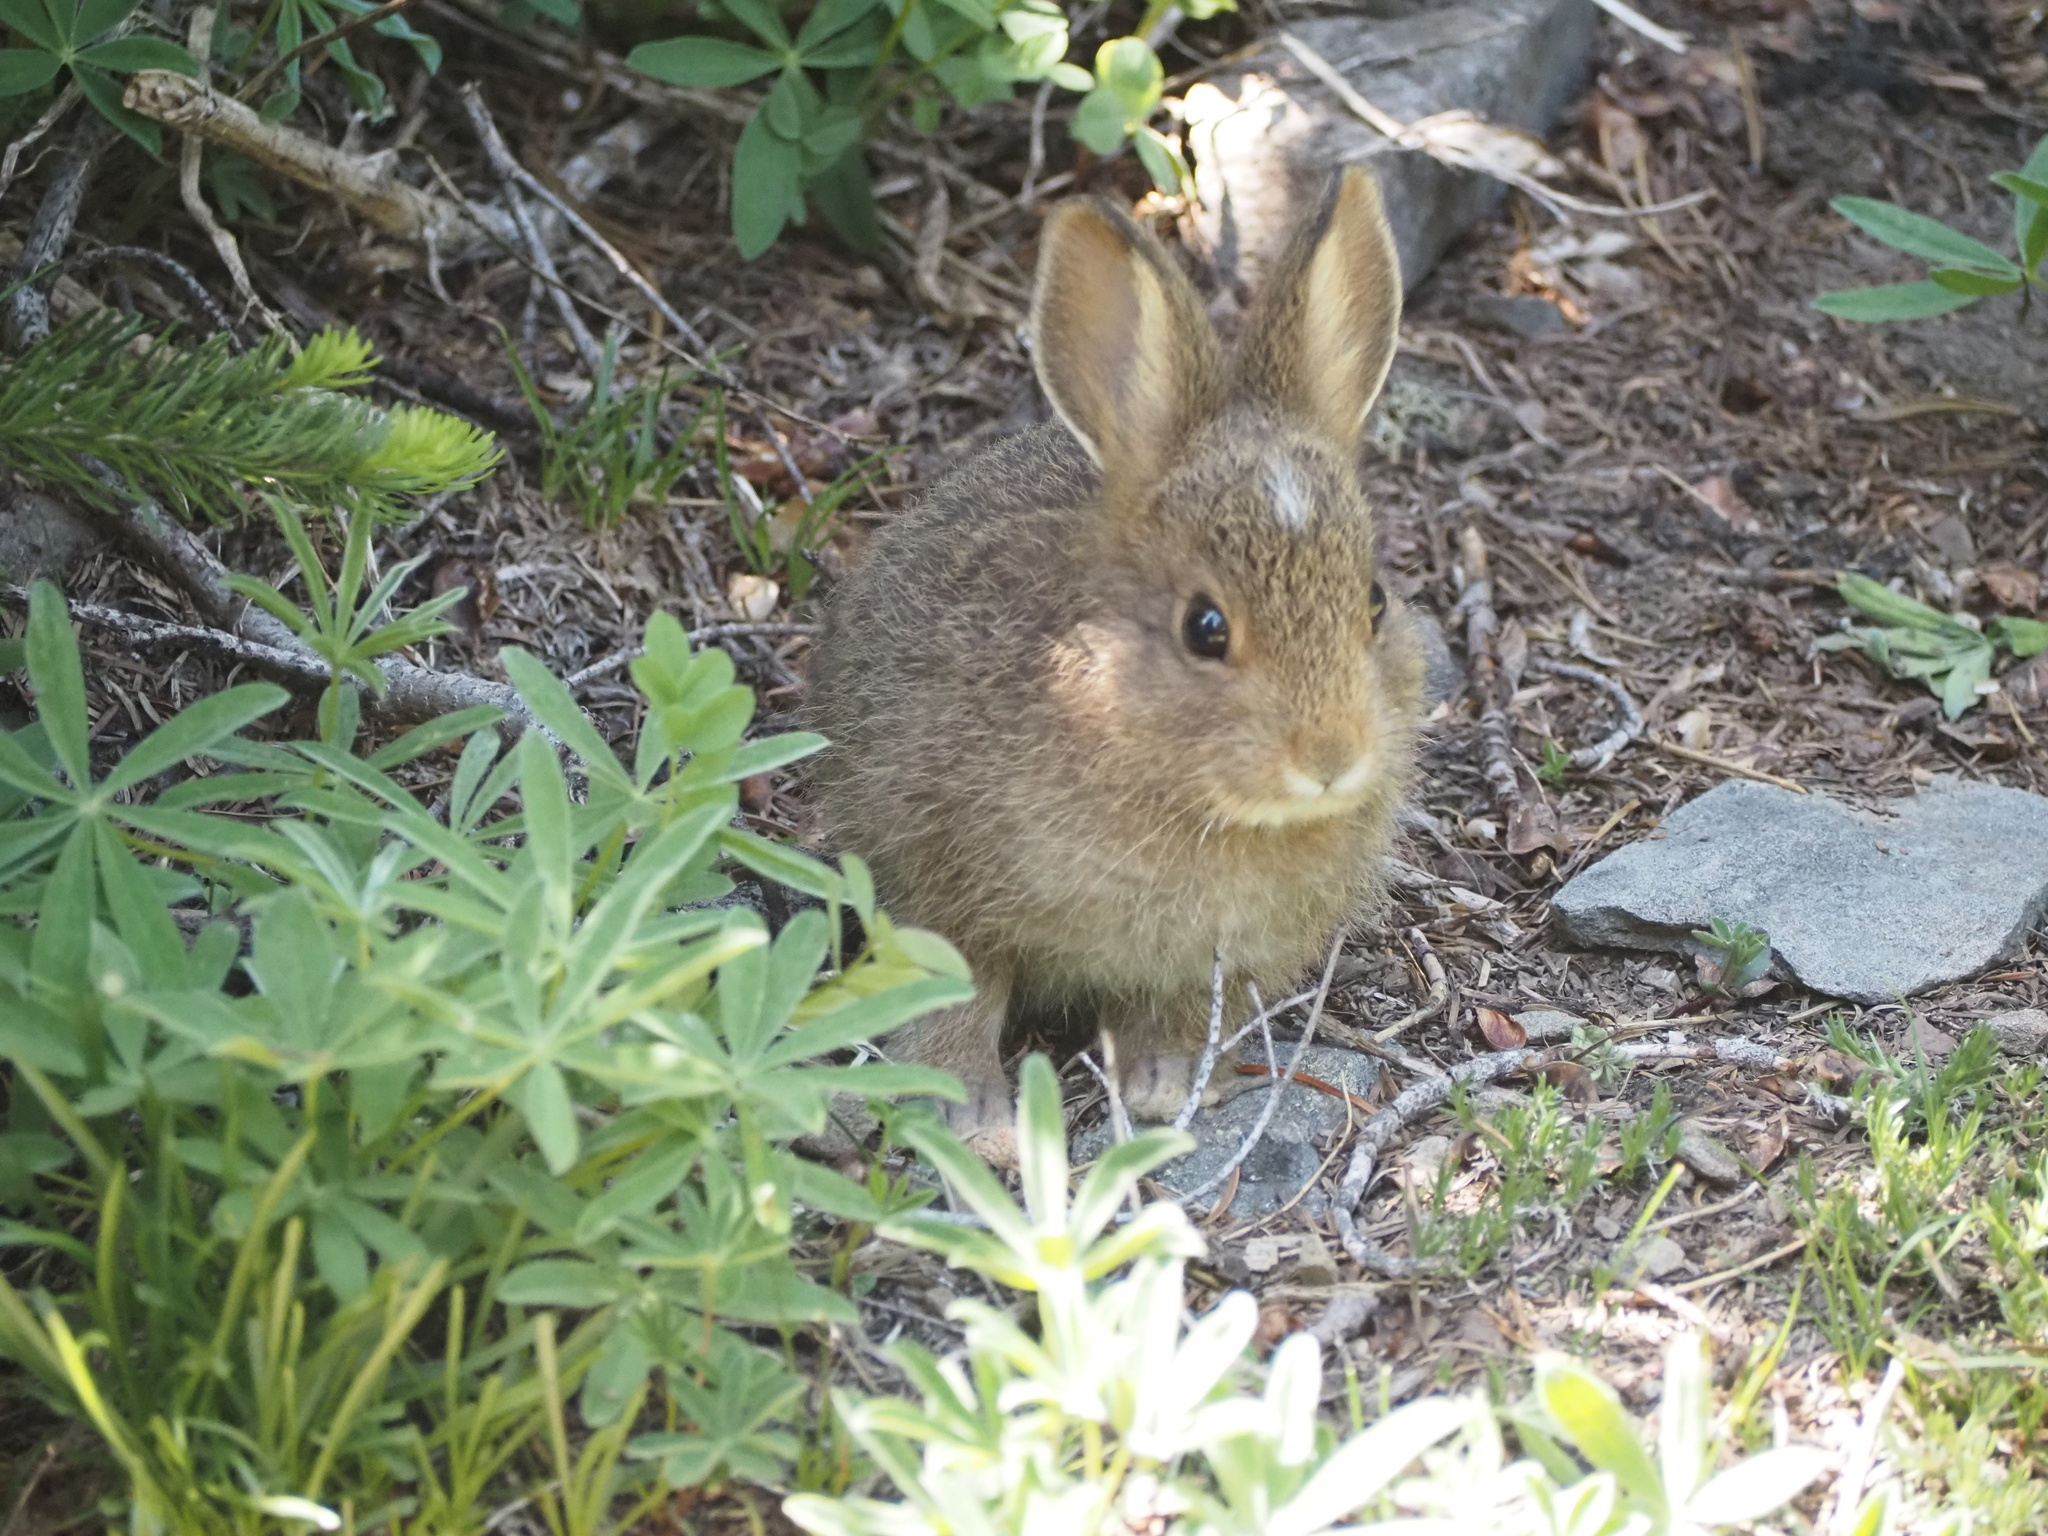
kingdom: Animalia
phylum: Chordata
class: Mammalia
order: Lagomorpha
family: Leporidae
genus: Lepus
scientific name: Lepus americanus
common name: Snowshoe hare
